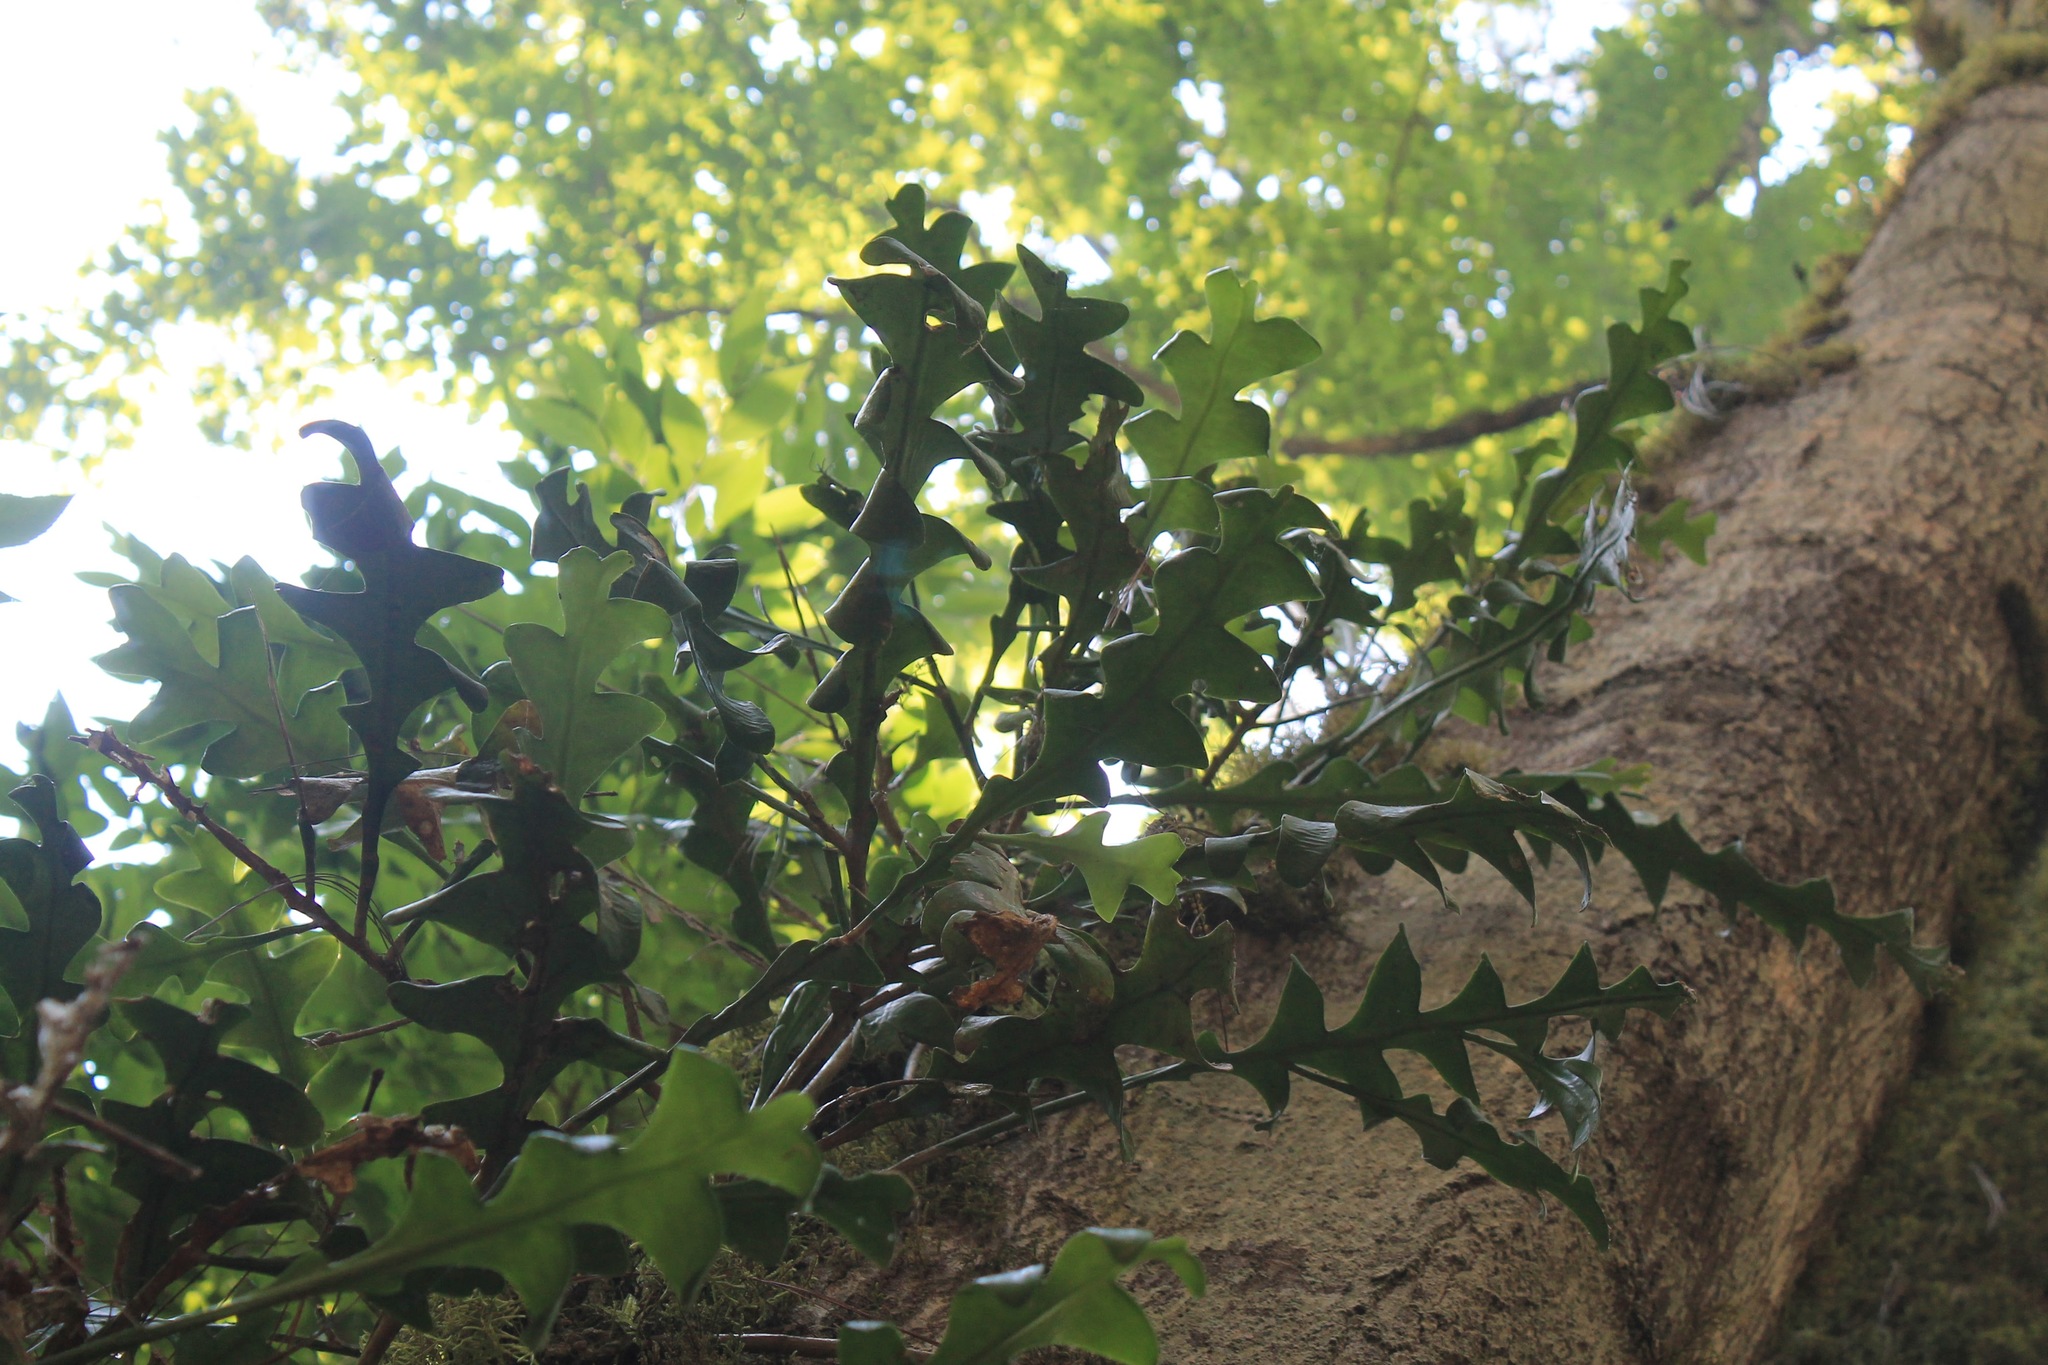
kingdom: Plantae
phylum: Tracheophyta
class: Magnoliopsida
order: Caryophyllales
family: Cactaceae
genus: Disocactus
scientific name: Disocactus anguliger
